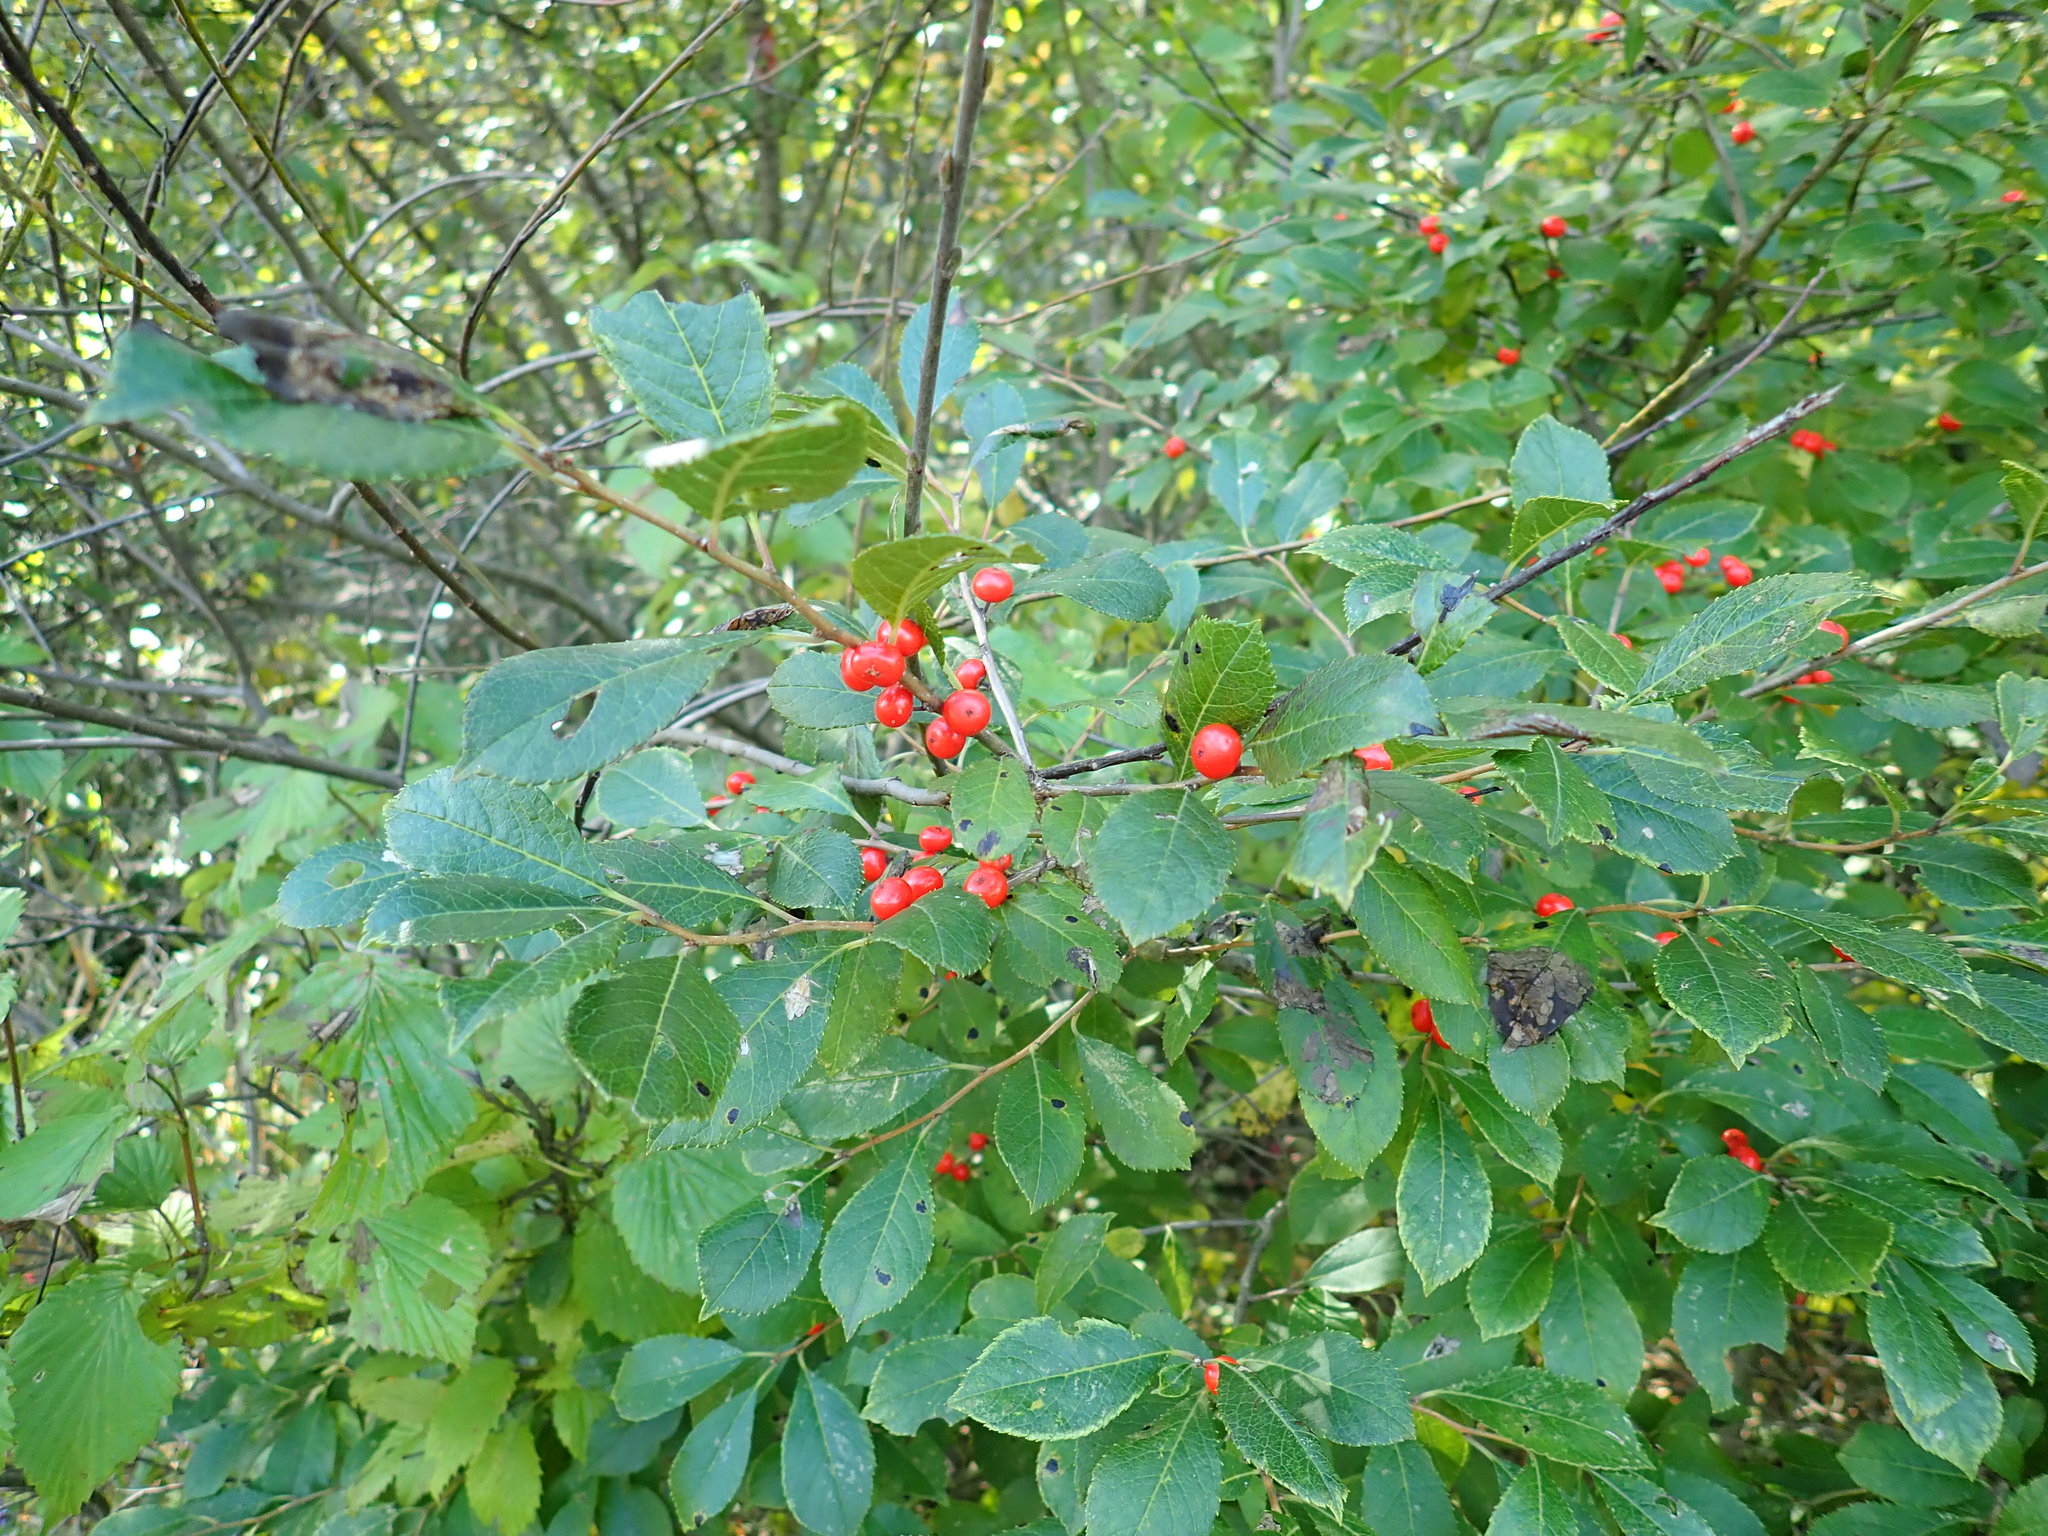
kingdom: Plantae
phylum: Tracheophyta
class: Magnoliopsida
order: Aquifoliales
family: Aquifoliaceae
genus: Ilex
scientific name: Ilex verticillata
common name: Virginia winterberry
